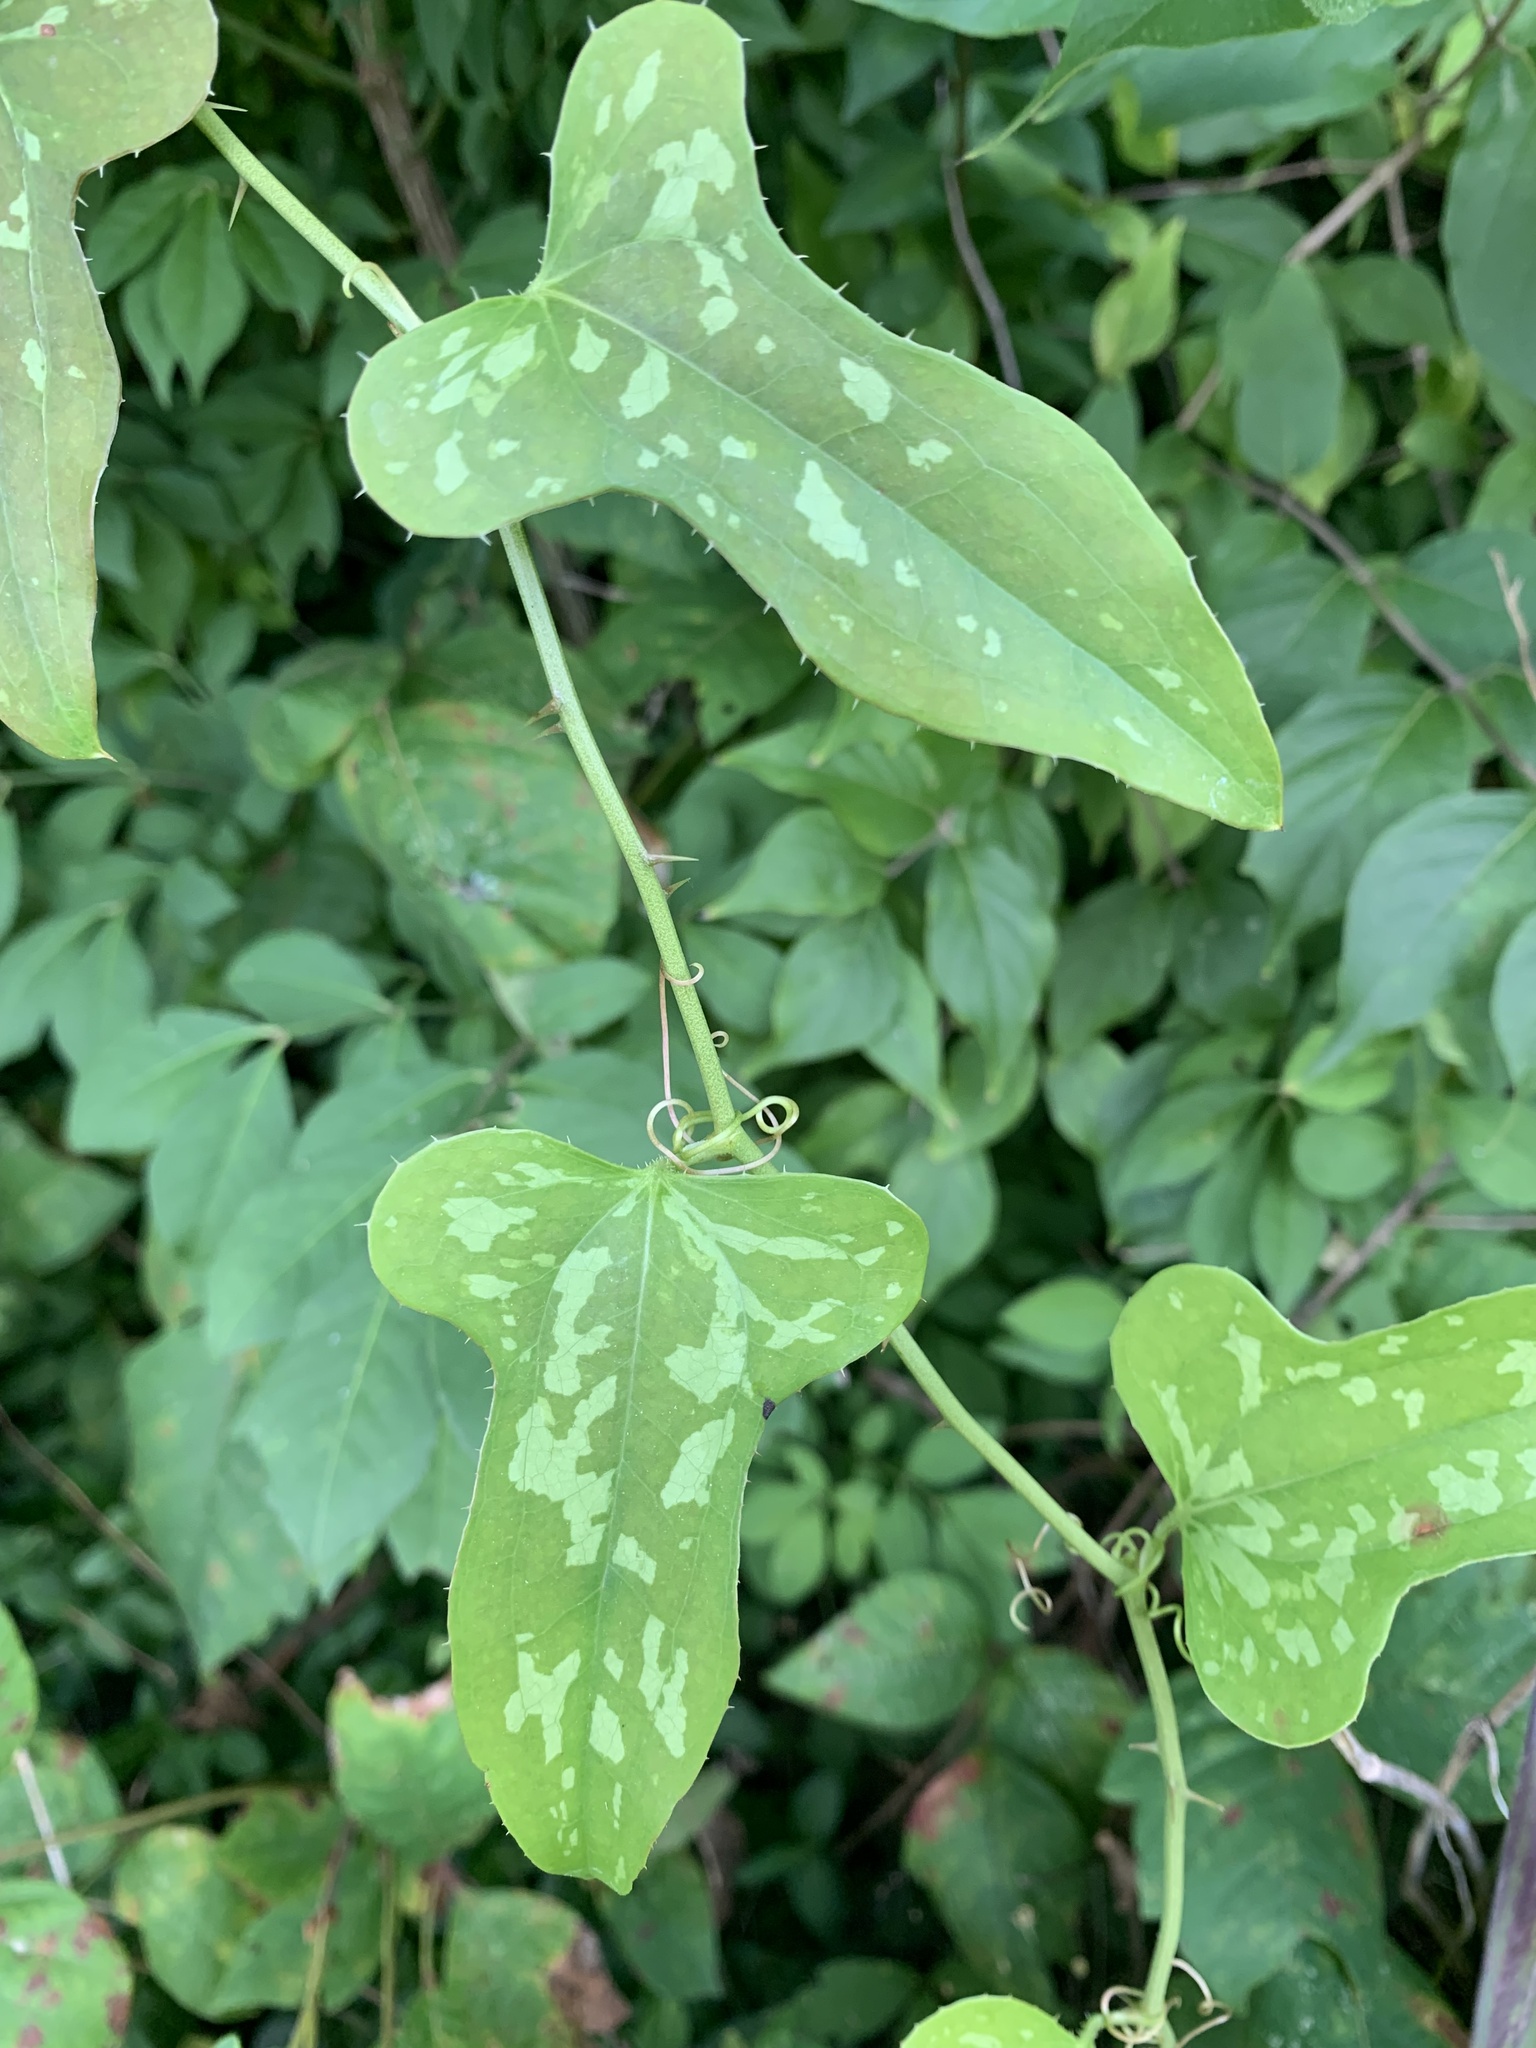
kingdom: Plantae
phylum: Tracheophyta
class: Liliopsida
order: Liliales
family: Smilacaceae
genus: Smilax
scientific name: Smilax bona-nox
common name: Catbrier
